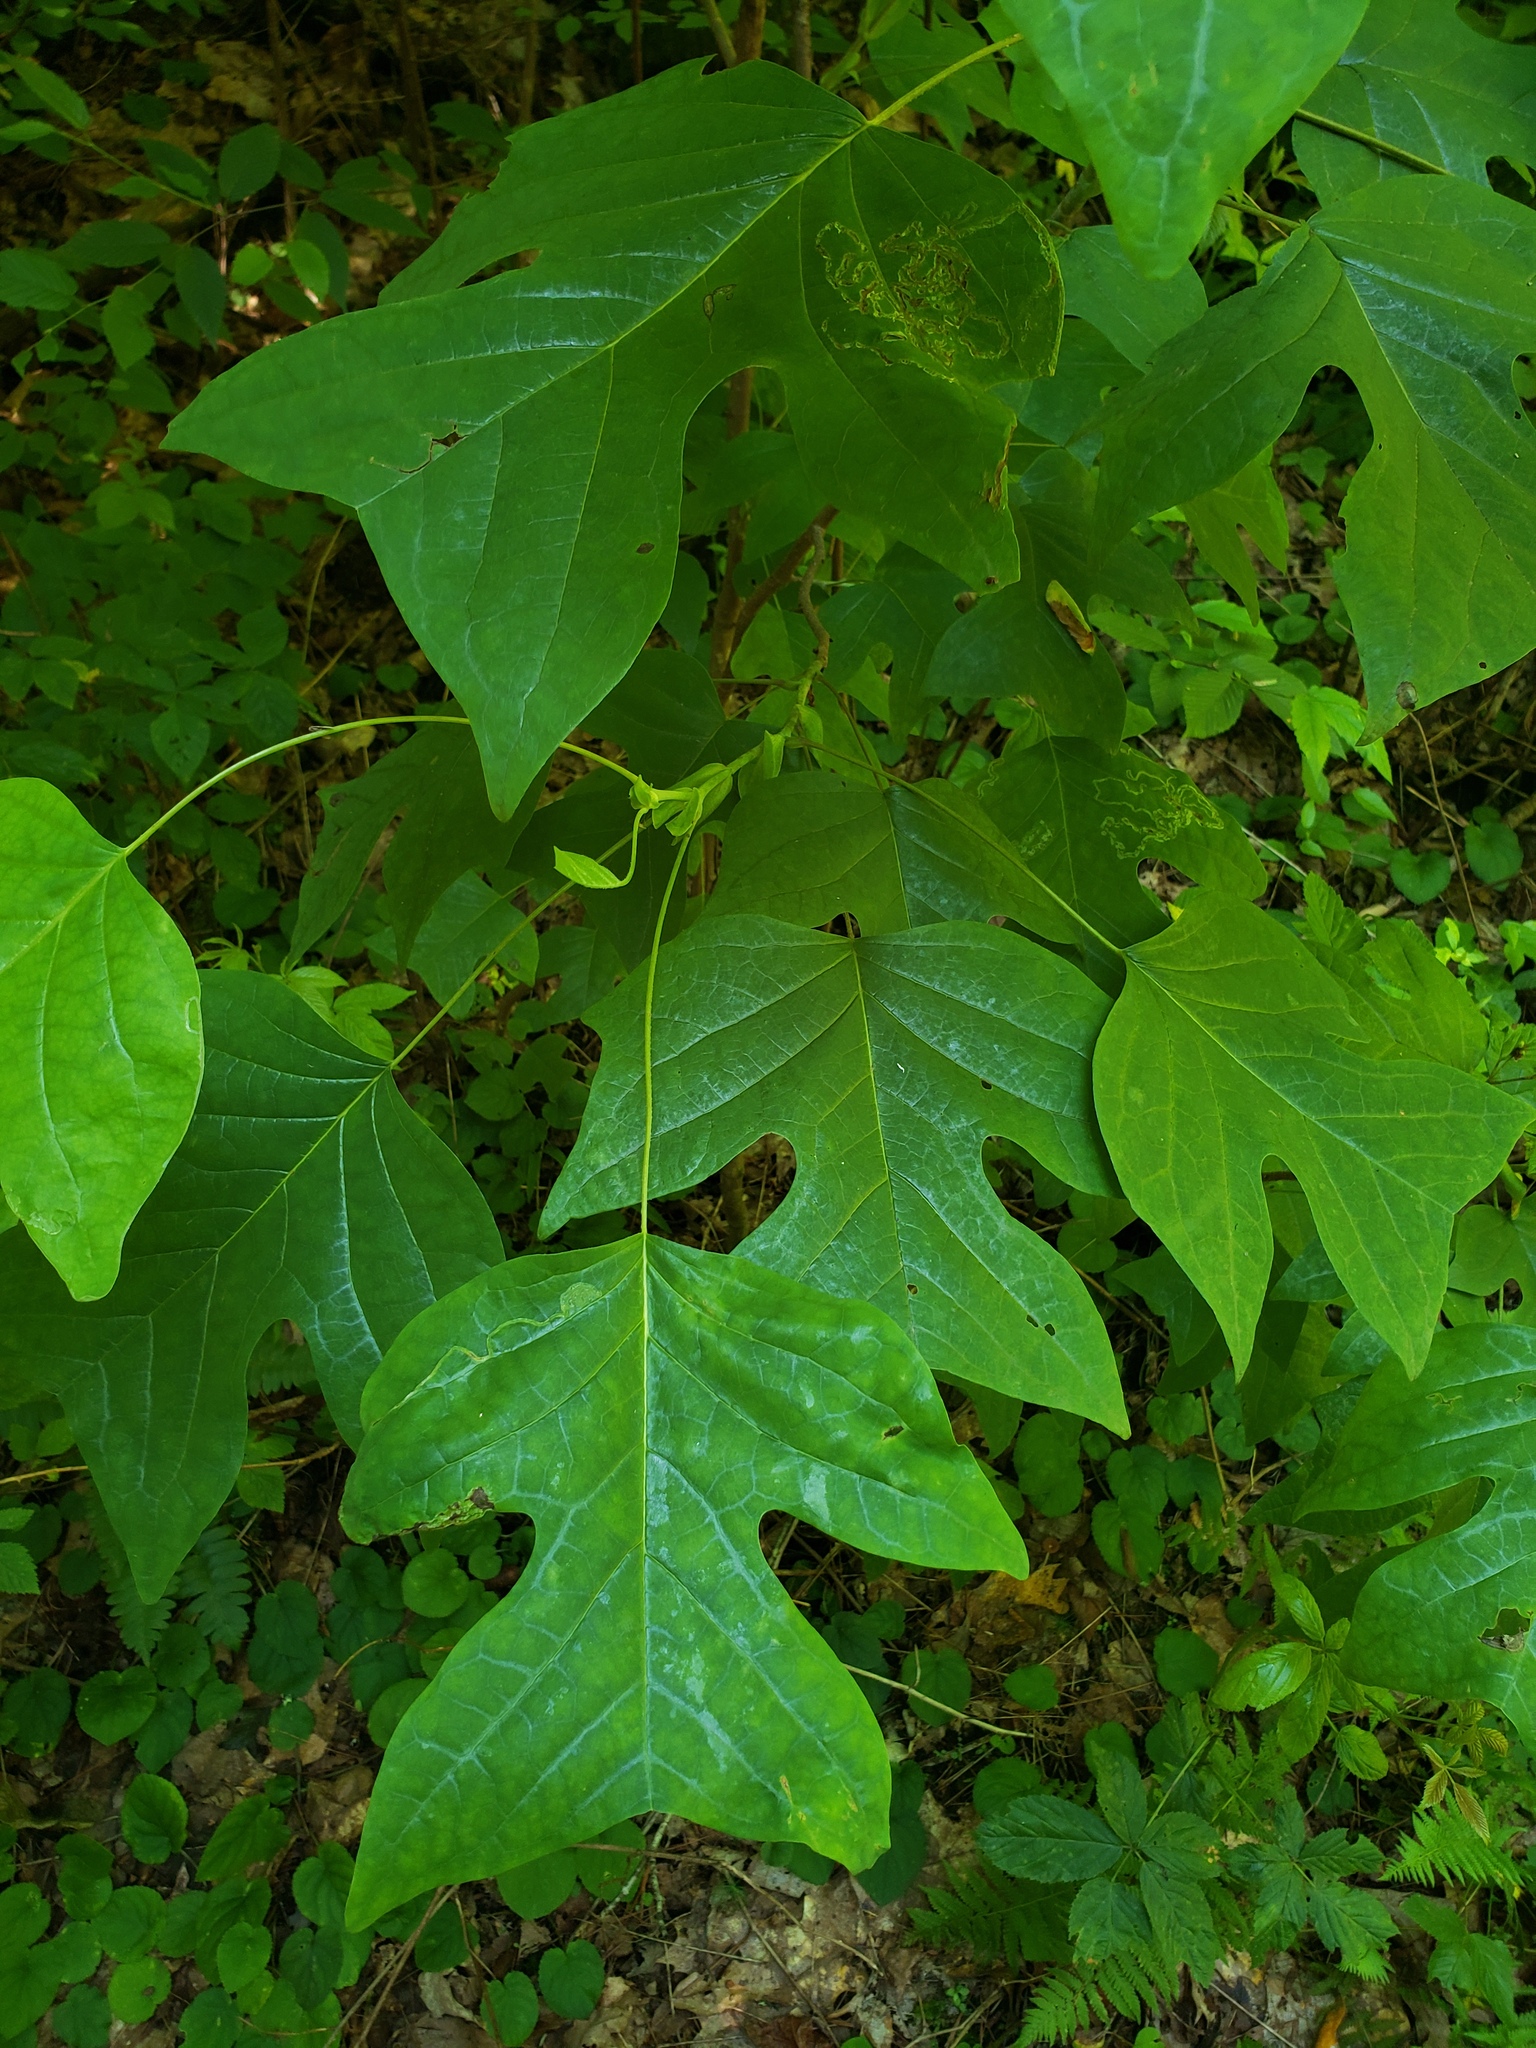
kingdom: Plantae
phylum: Tracheophyta
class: Magnoliopsida
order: Magnoliales
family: Magnoliaceae
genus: Liriodendron
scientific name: Liriodendron tulipifera
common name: Tulip tree
